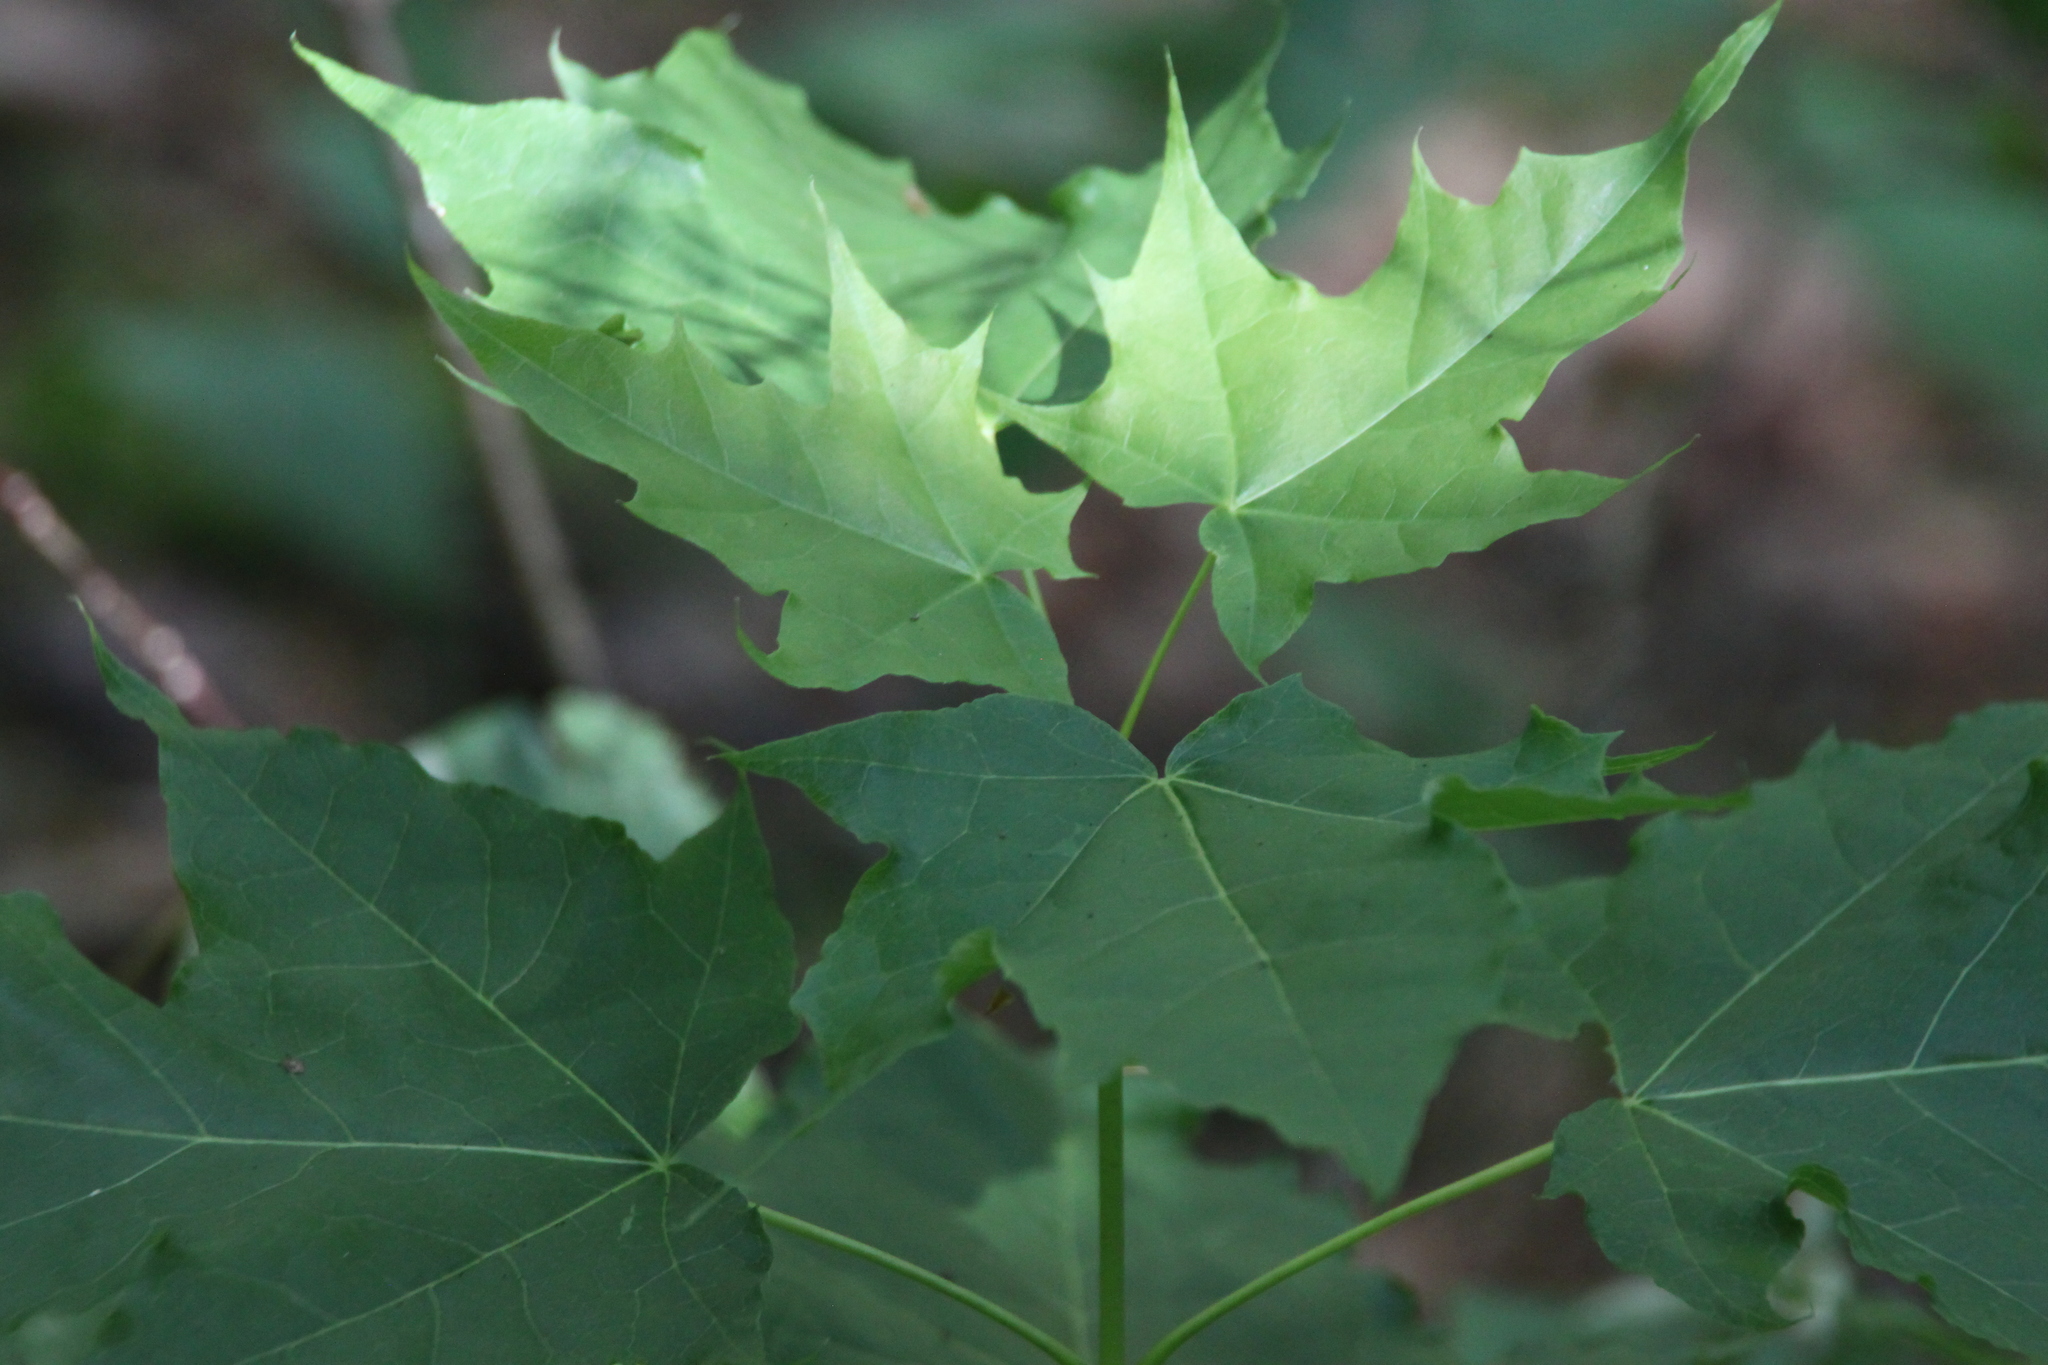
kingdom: Plantae
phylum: Tracheophyta
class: Magnoliopsida
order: Sapindales
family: Sapindaceae
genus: Acer
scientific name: Acer platanoides
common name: Norway maple
